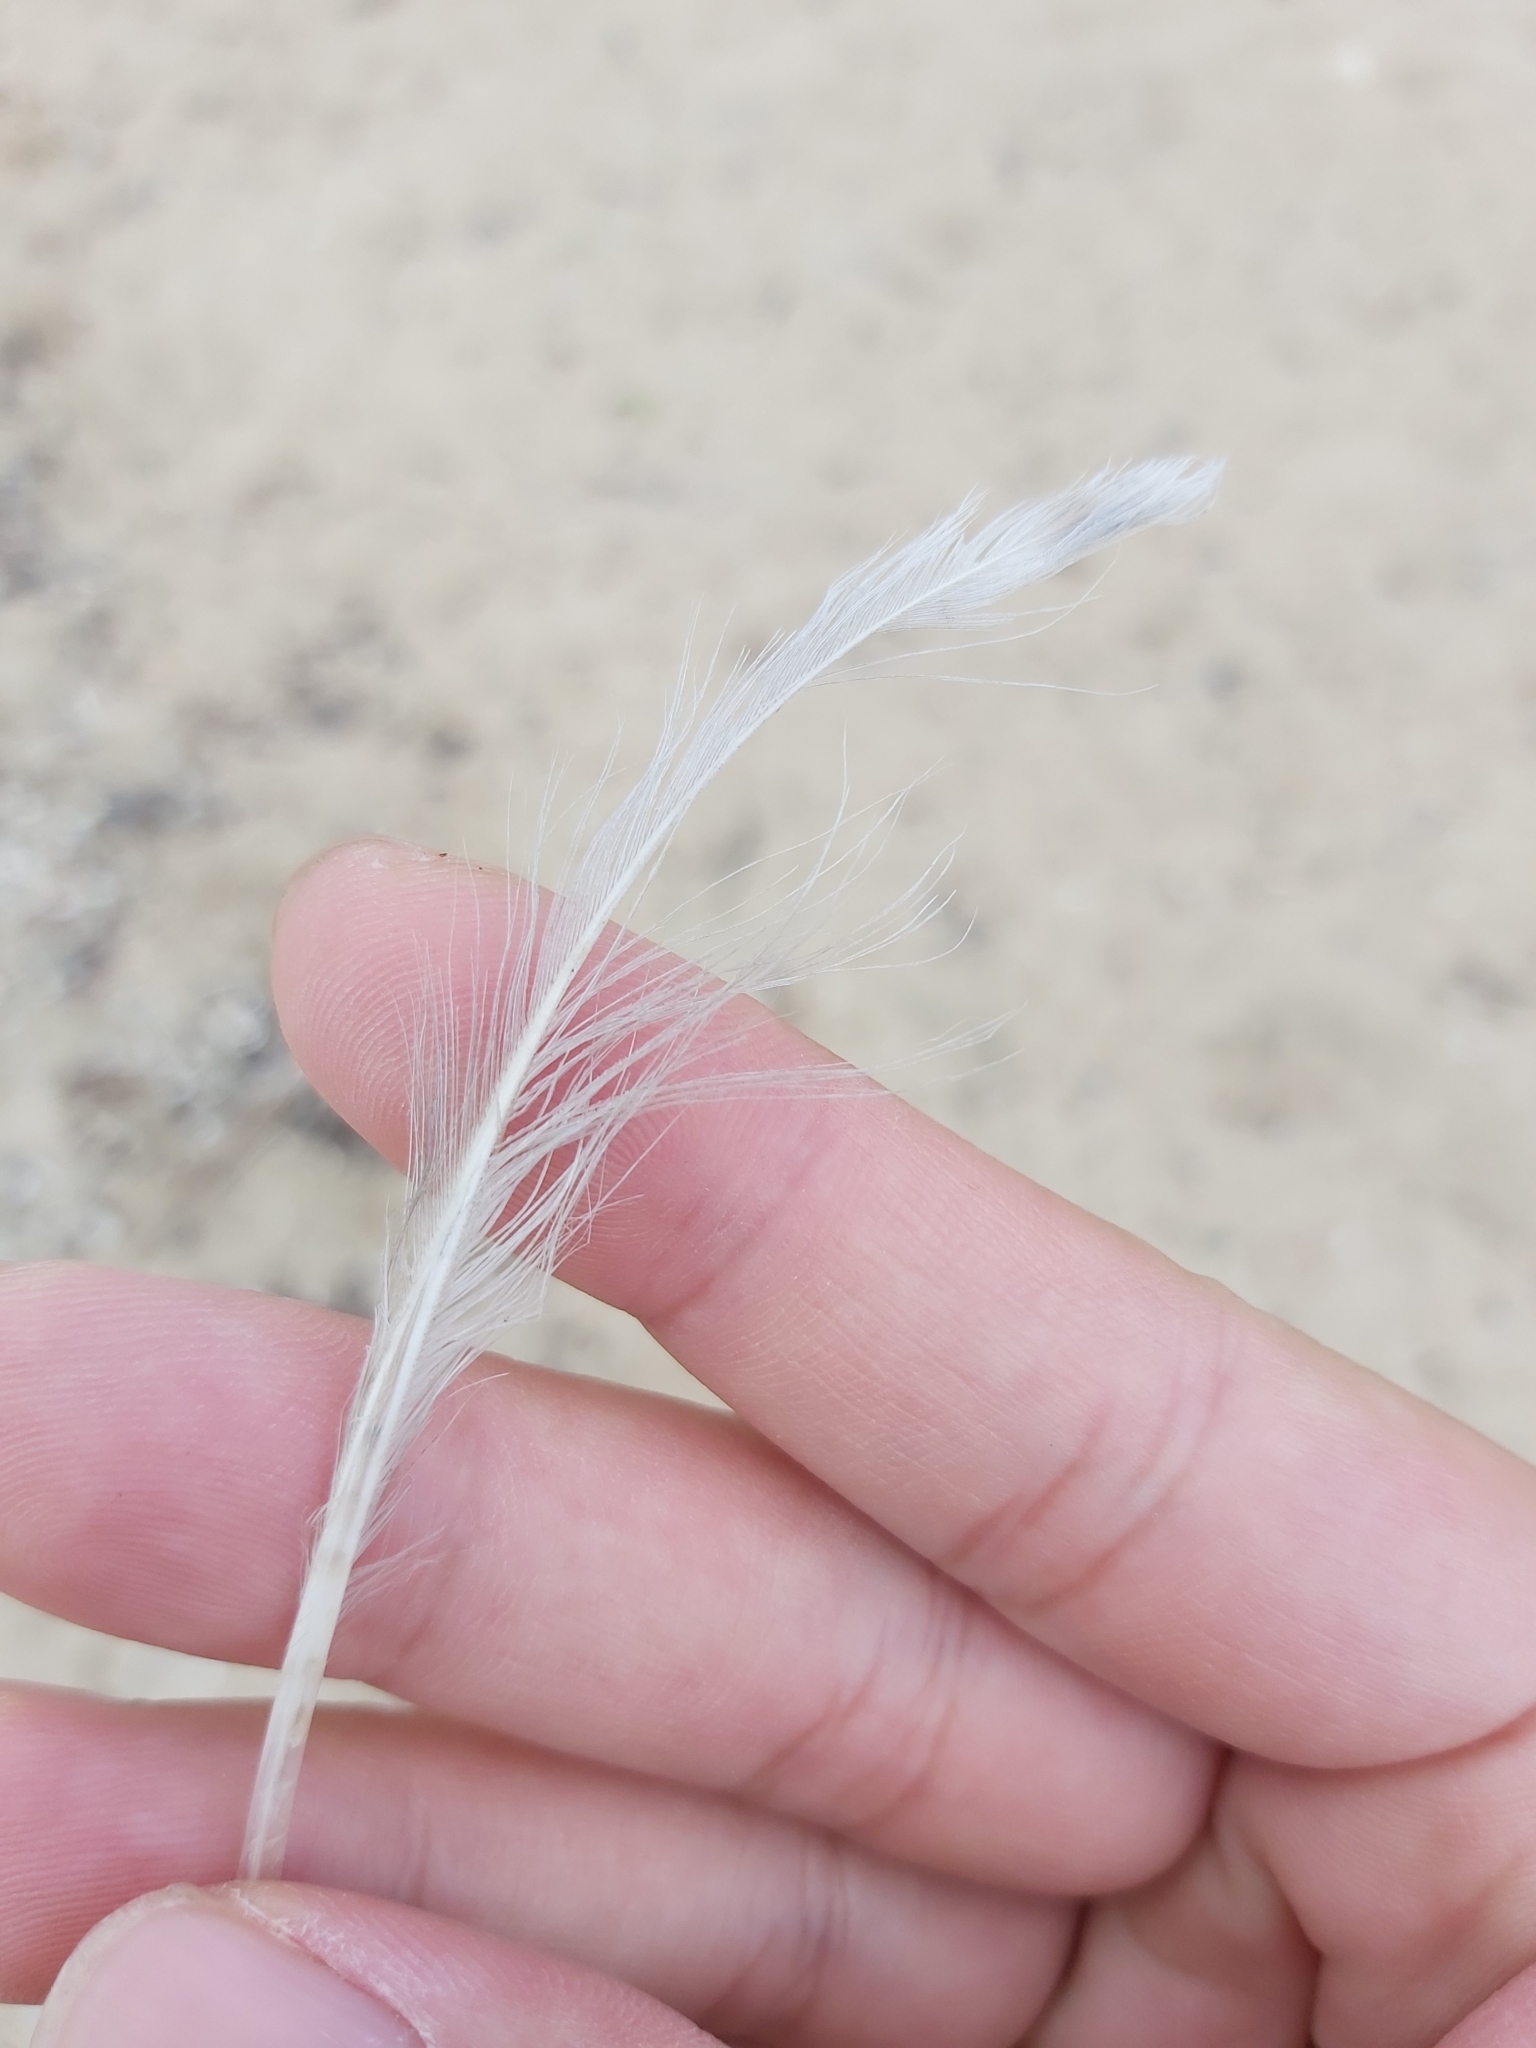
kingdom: Animalia
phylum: Chordata
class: Aves
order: Charadriiformes
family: Laridae
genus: Chroicocephalus
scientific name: Chroicocephalus novaehollandiae
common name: Silver gull
